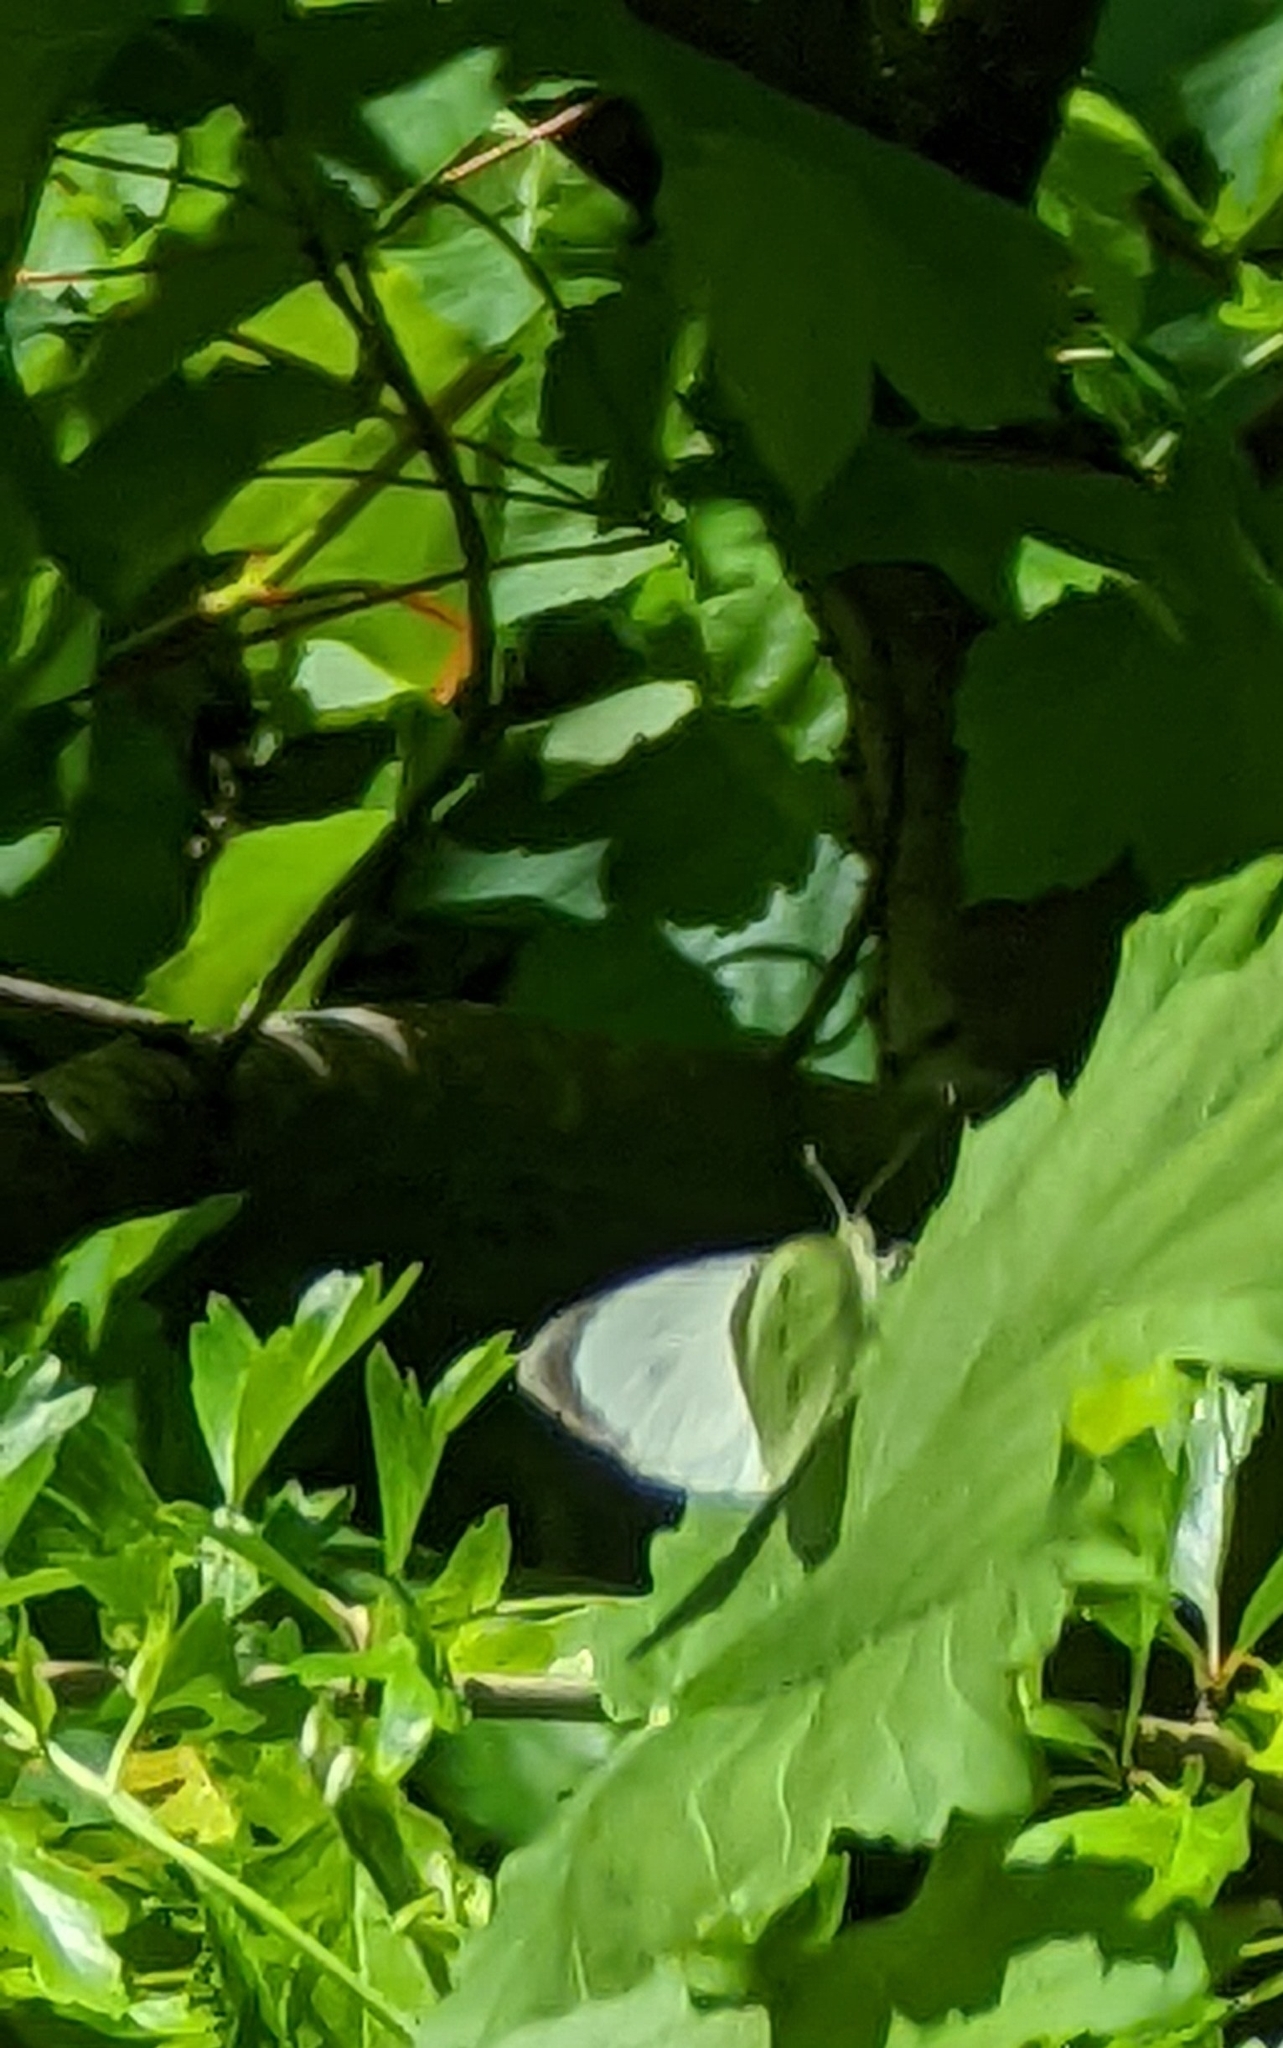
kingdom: Animalia
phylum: Arthropoda
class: Insecta
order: Lepidoptera
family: Pieridae
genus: Pieris
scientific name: Pieris brassicae
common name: Large white
